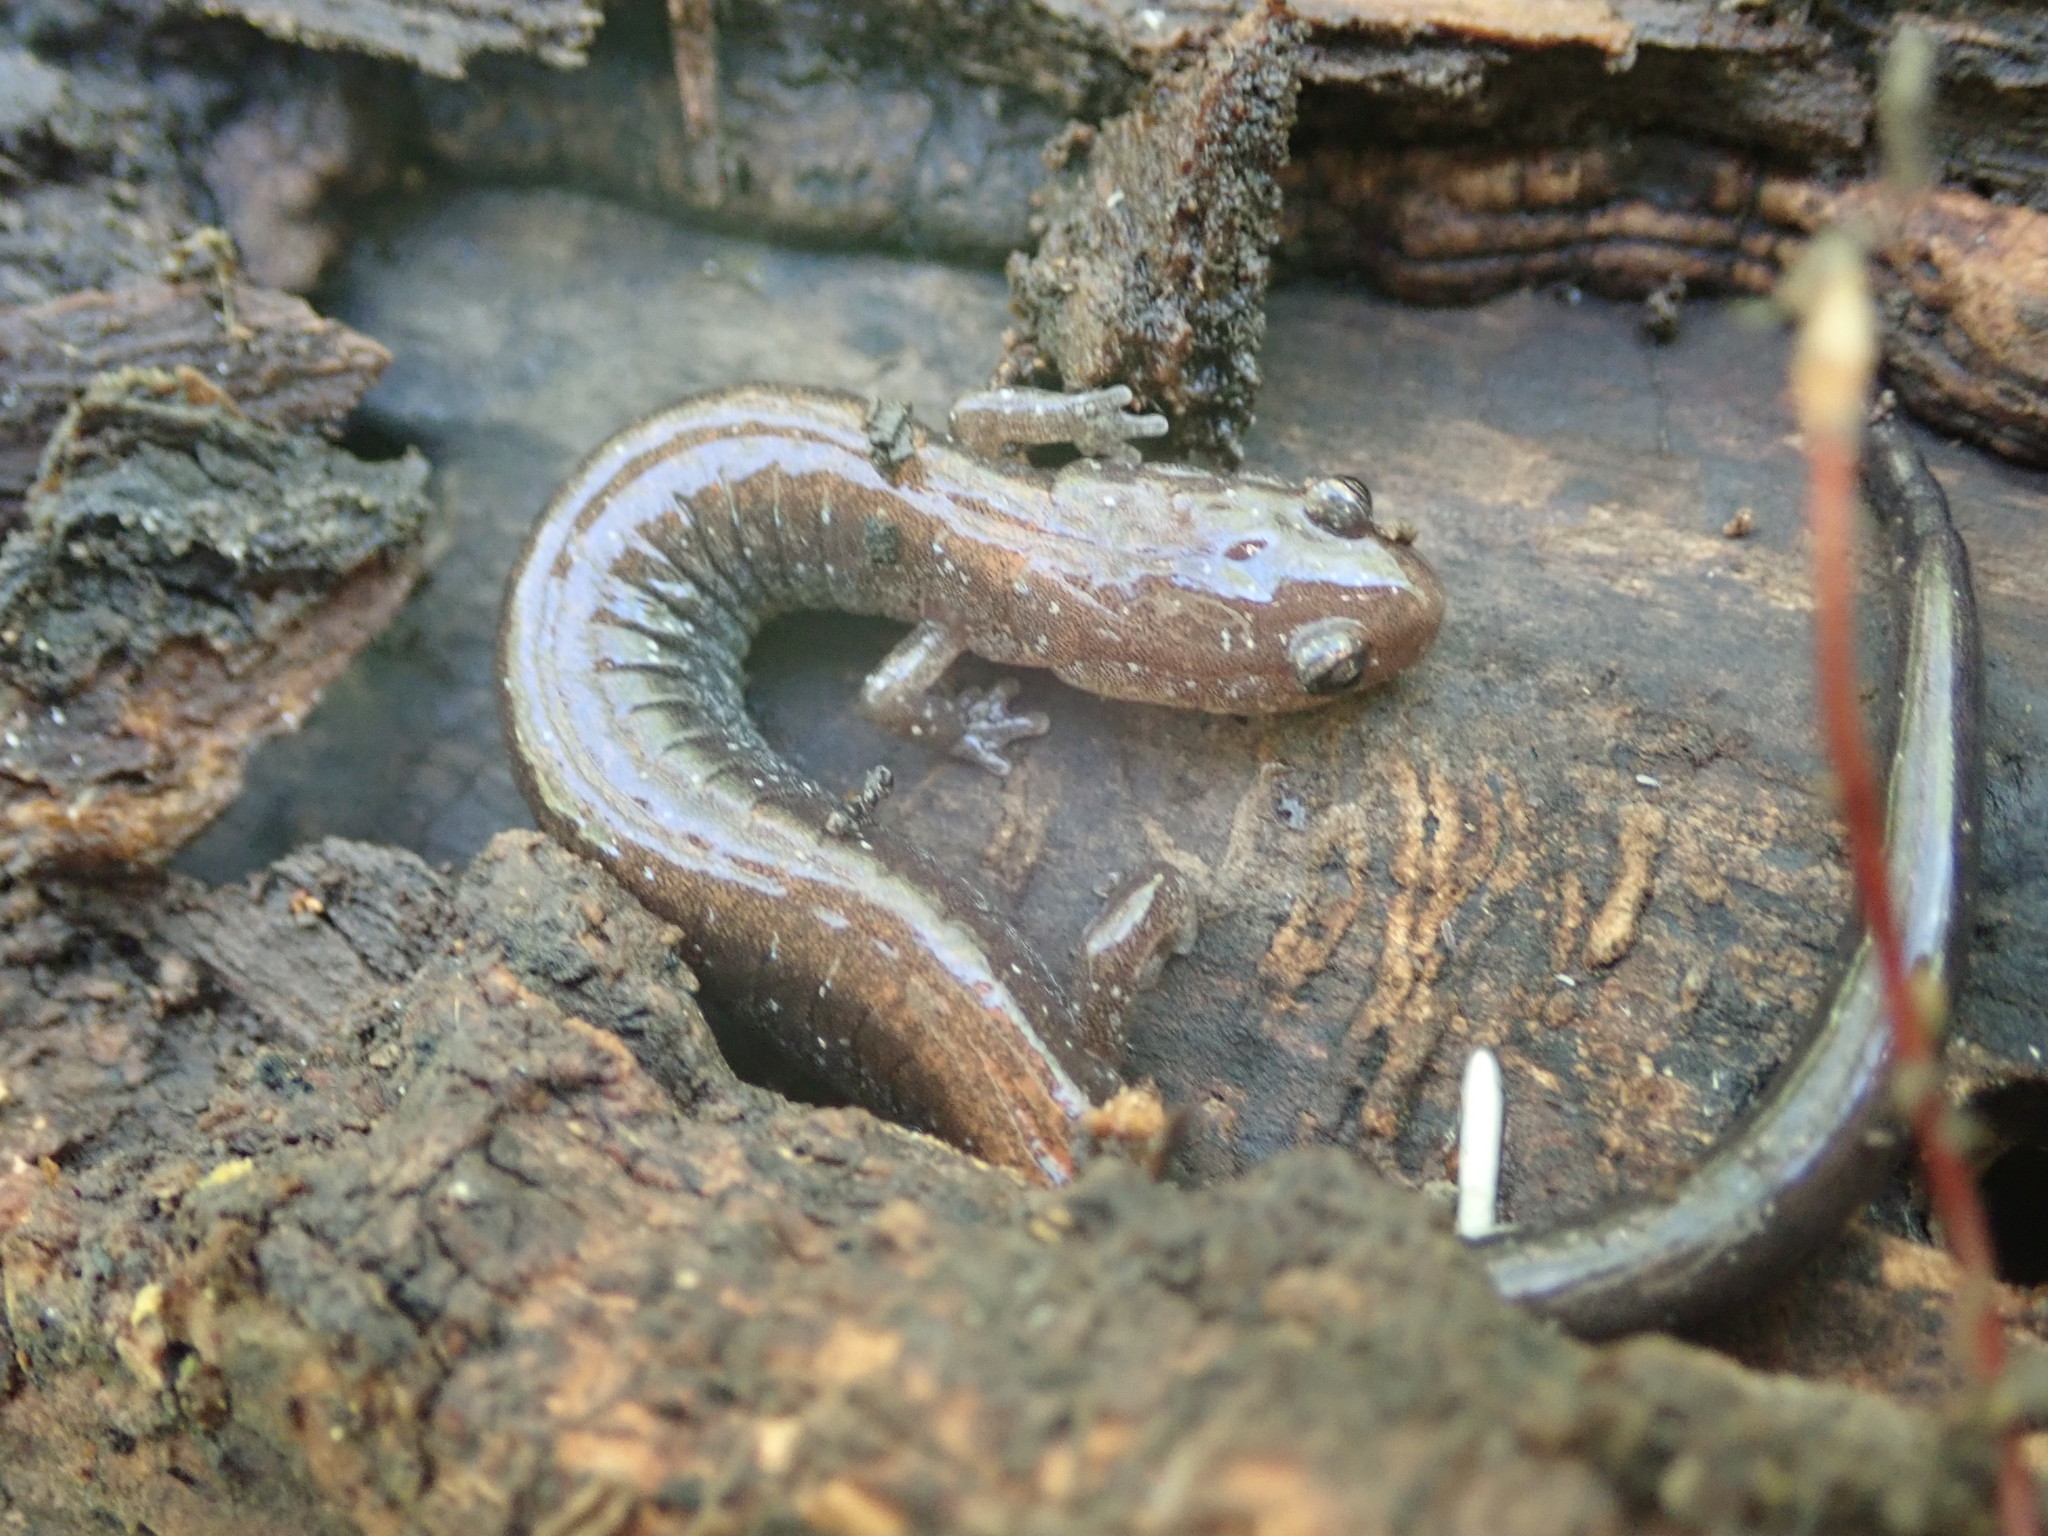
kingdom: Animalia
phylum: Chordata
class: Amphibia
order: Caudata
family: Plethodontidae
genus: Plethodon
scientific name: Plethodon cinereus
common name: Redback salamander
